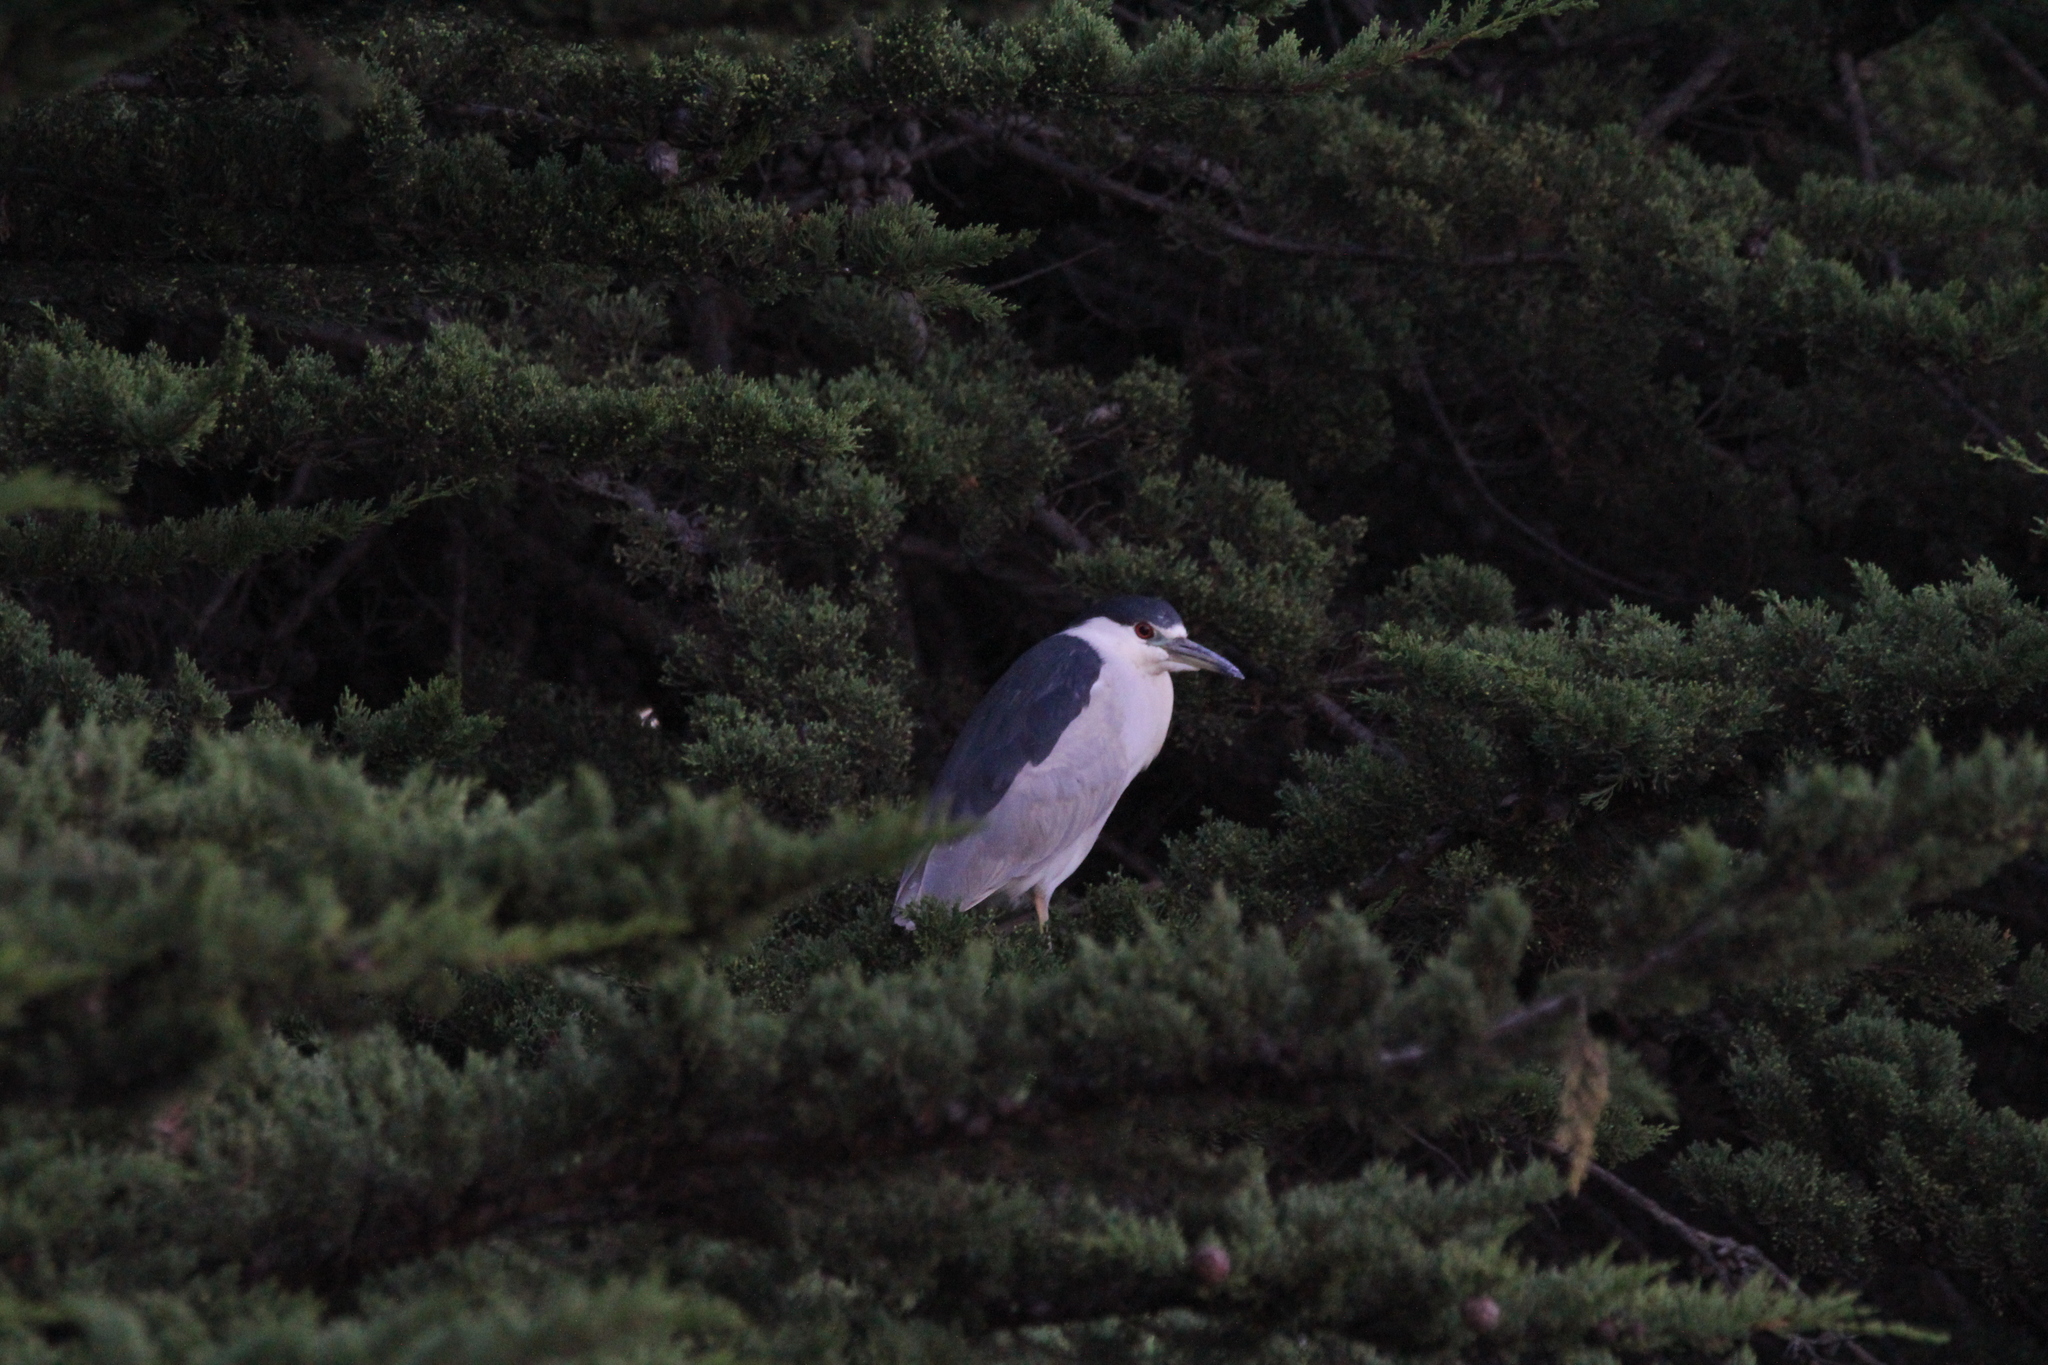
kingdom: Animalia
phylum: Chordata
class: Aves
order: Pelecaniformes
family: Ardeidae
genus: Nycticorax
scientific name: Nycticorax nycticorax
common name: Black-crowned night heron
